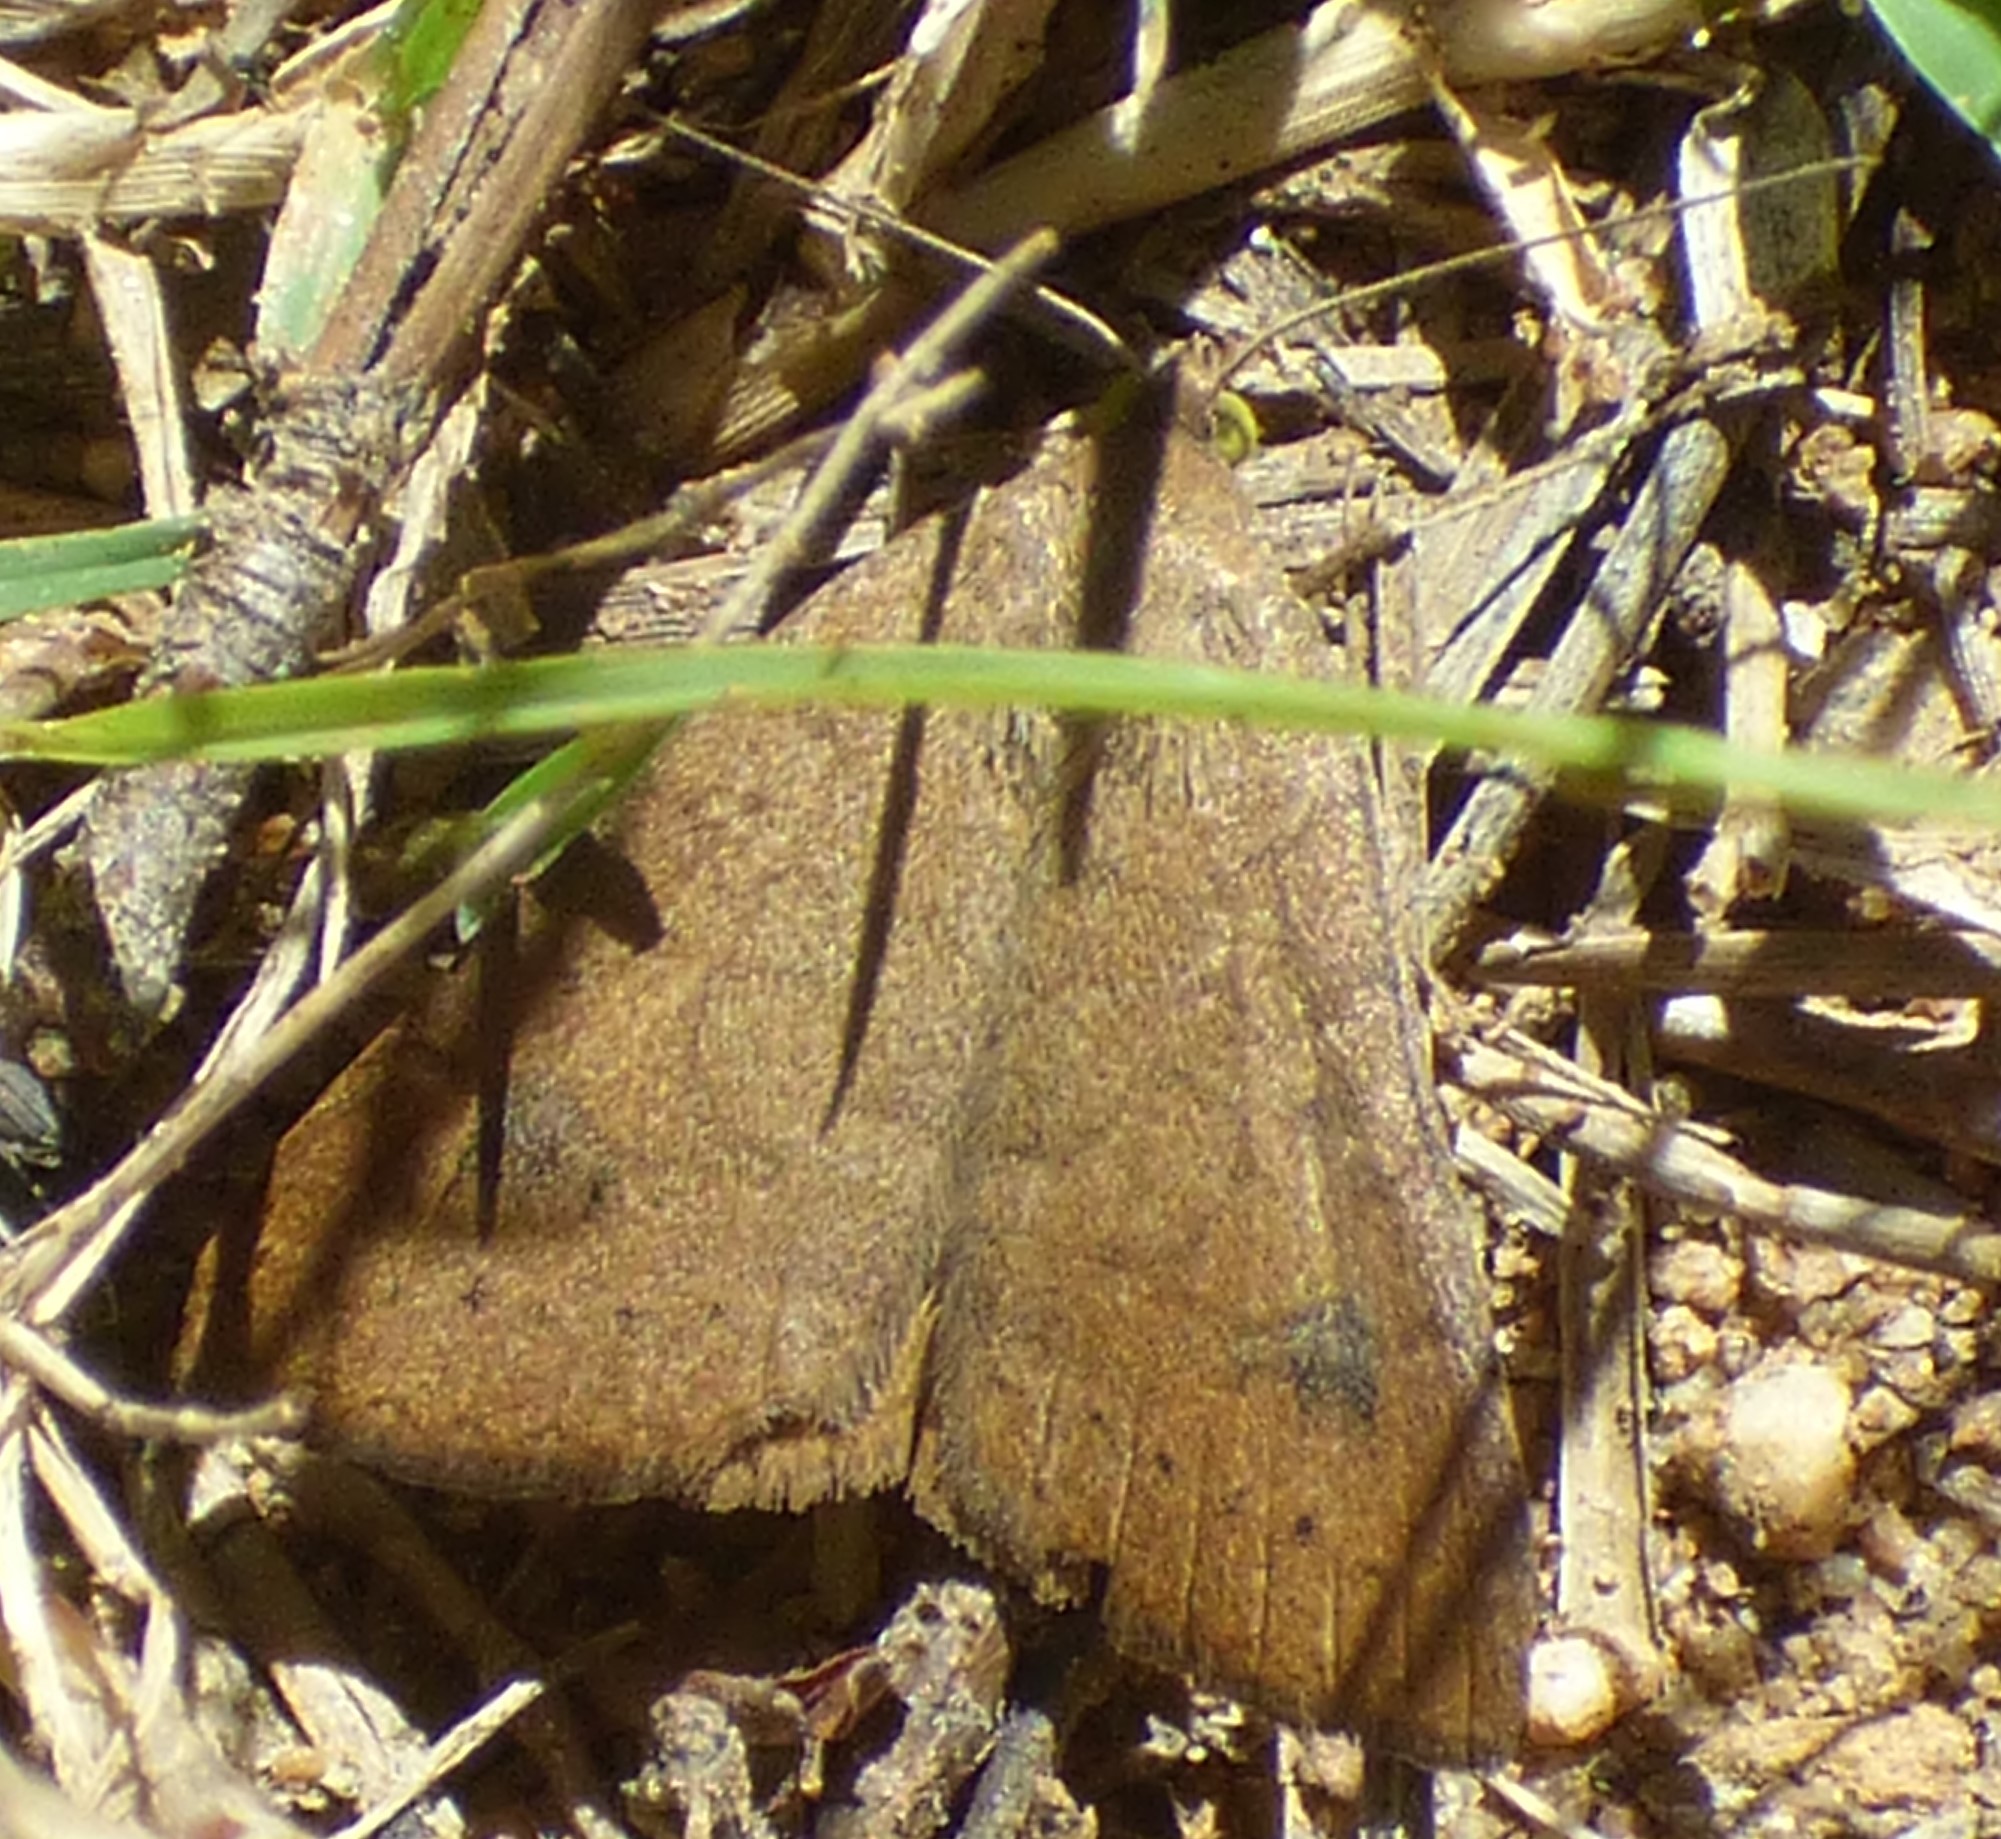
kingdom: Animalia
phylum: Arthropoda
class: Insecta
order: Lepidoptera
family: Erebidae
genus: Caenurgia
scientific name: Caenurgia chloropha
